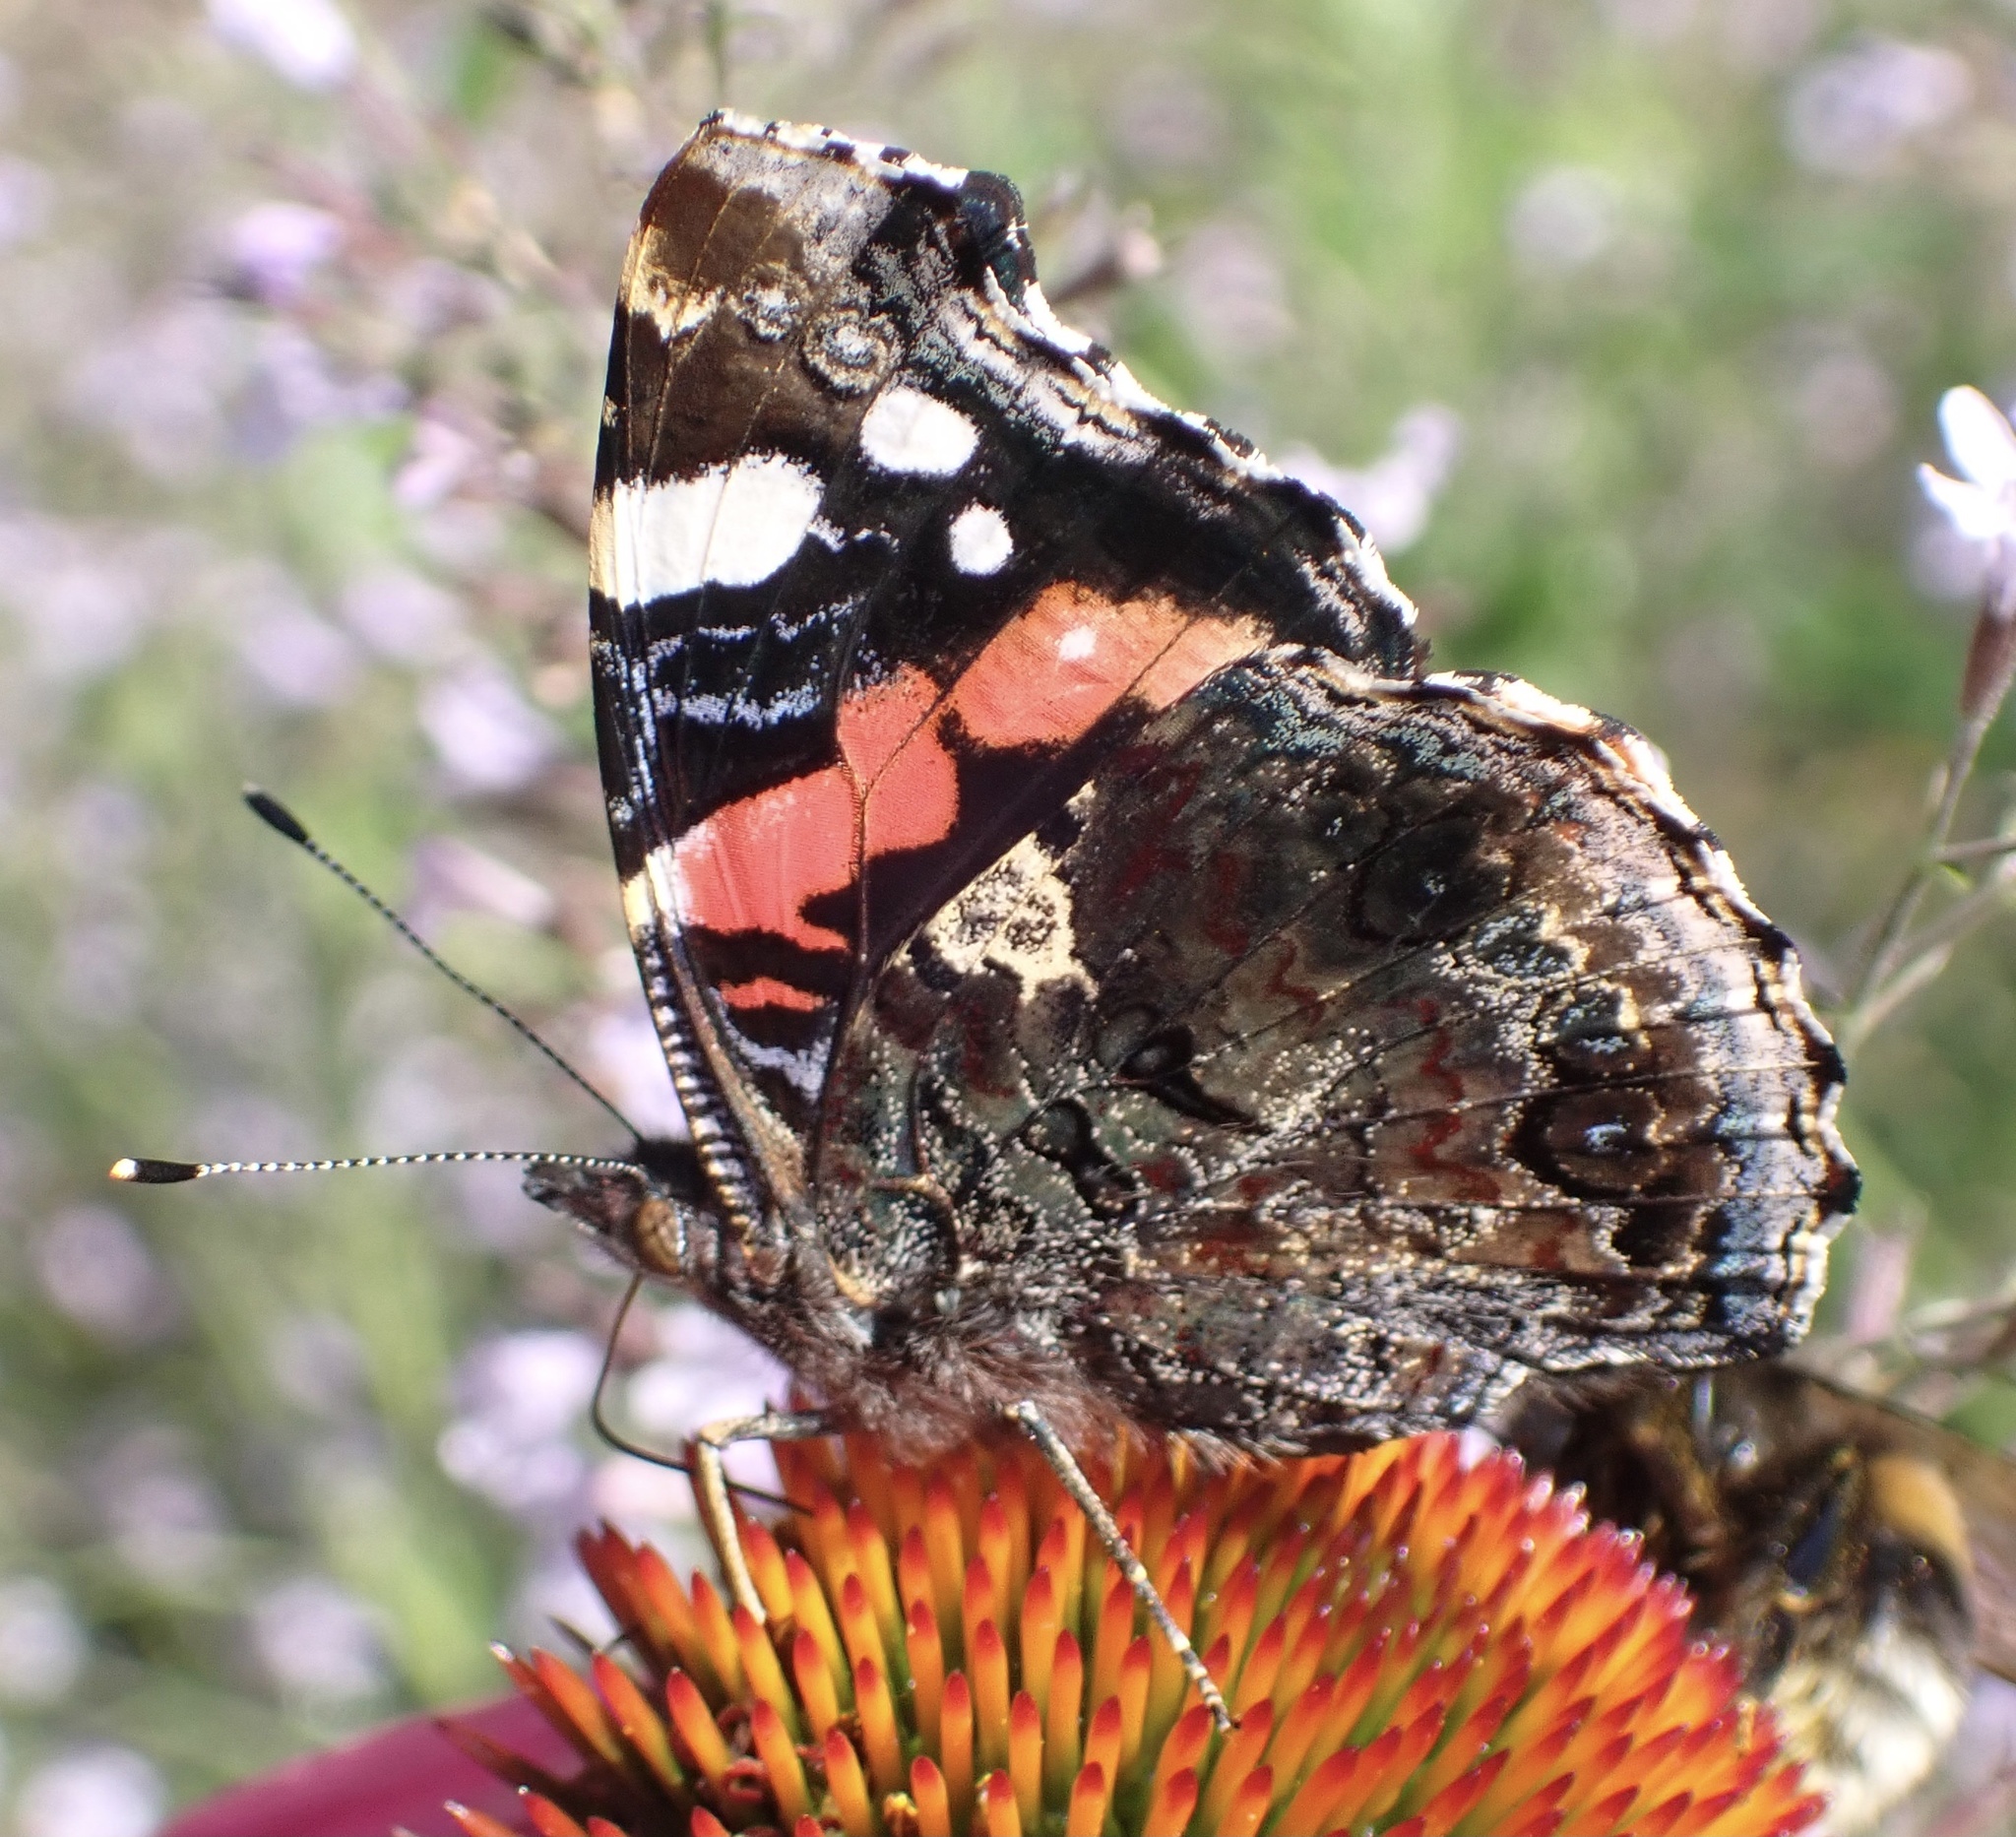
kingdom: Animalia
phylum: Arthropoda
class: Insecta
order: Lepidoptera
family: Nymphalidae
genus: Vanessa
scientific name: Vanessa atalanta
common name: Red admiral
